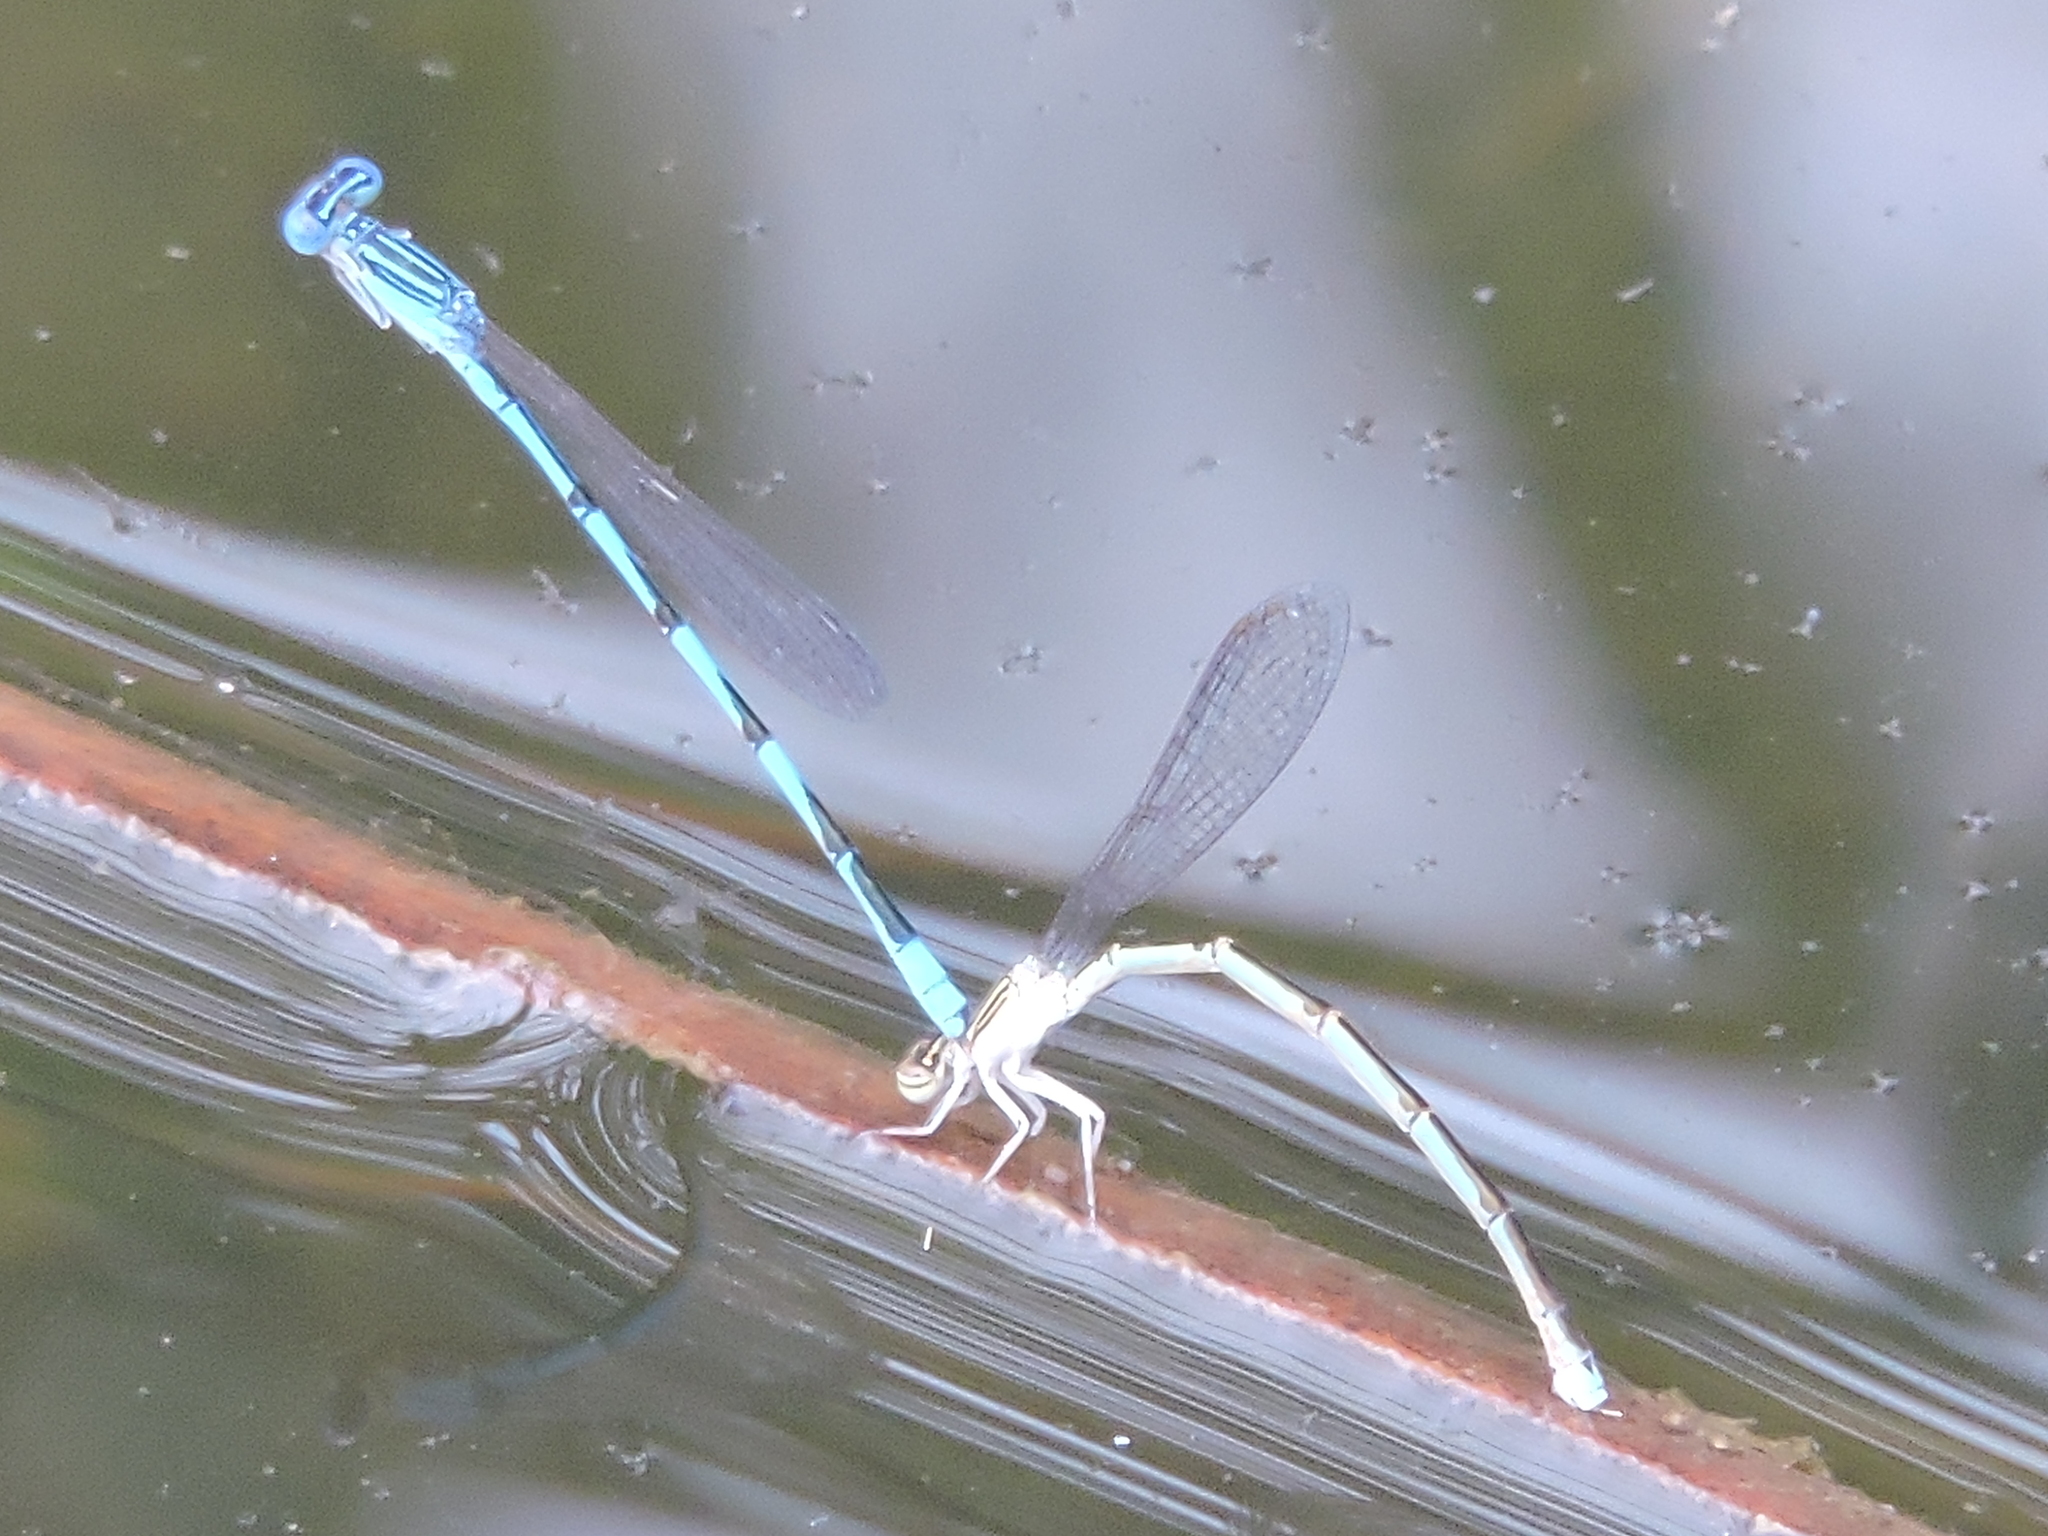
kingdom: Animalia
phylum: Arthropoda
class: Insecta
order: Odonata
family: Coenagrionidae
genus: Enallagma
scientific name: Enallagma basidens
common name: Double-striped bluet
